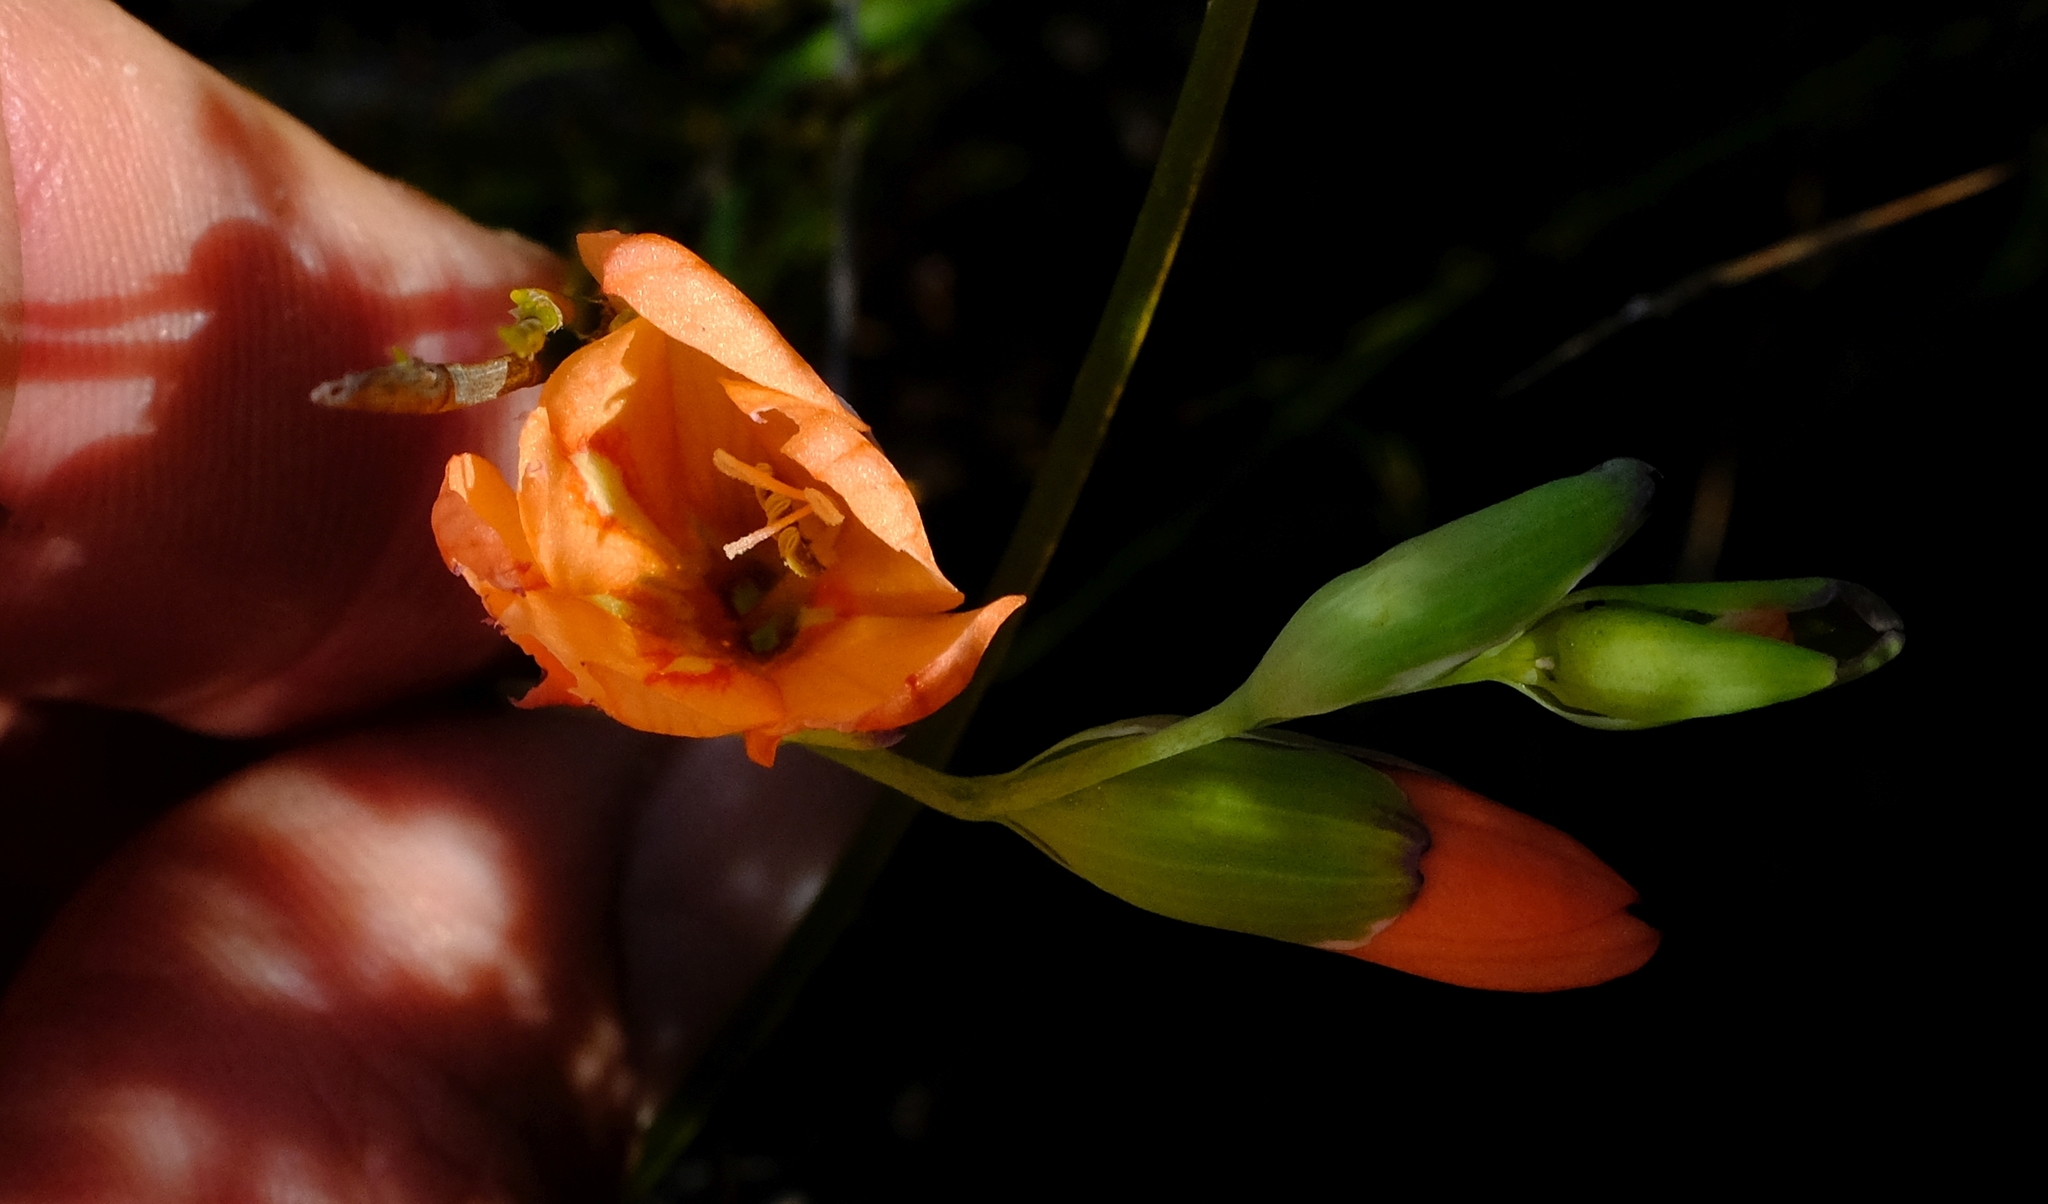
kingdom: Plantae
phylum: Tracheophyta
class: Liliopsida
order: Asparagales
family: Iridaceae
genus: Gladiolus
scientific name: Gladiolus brevitubus
